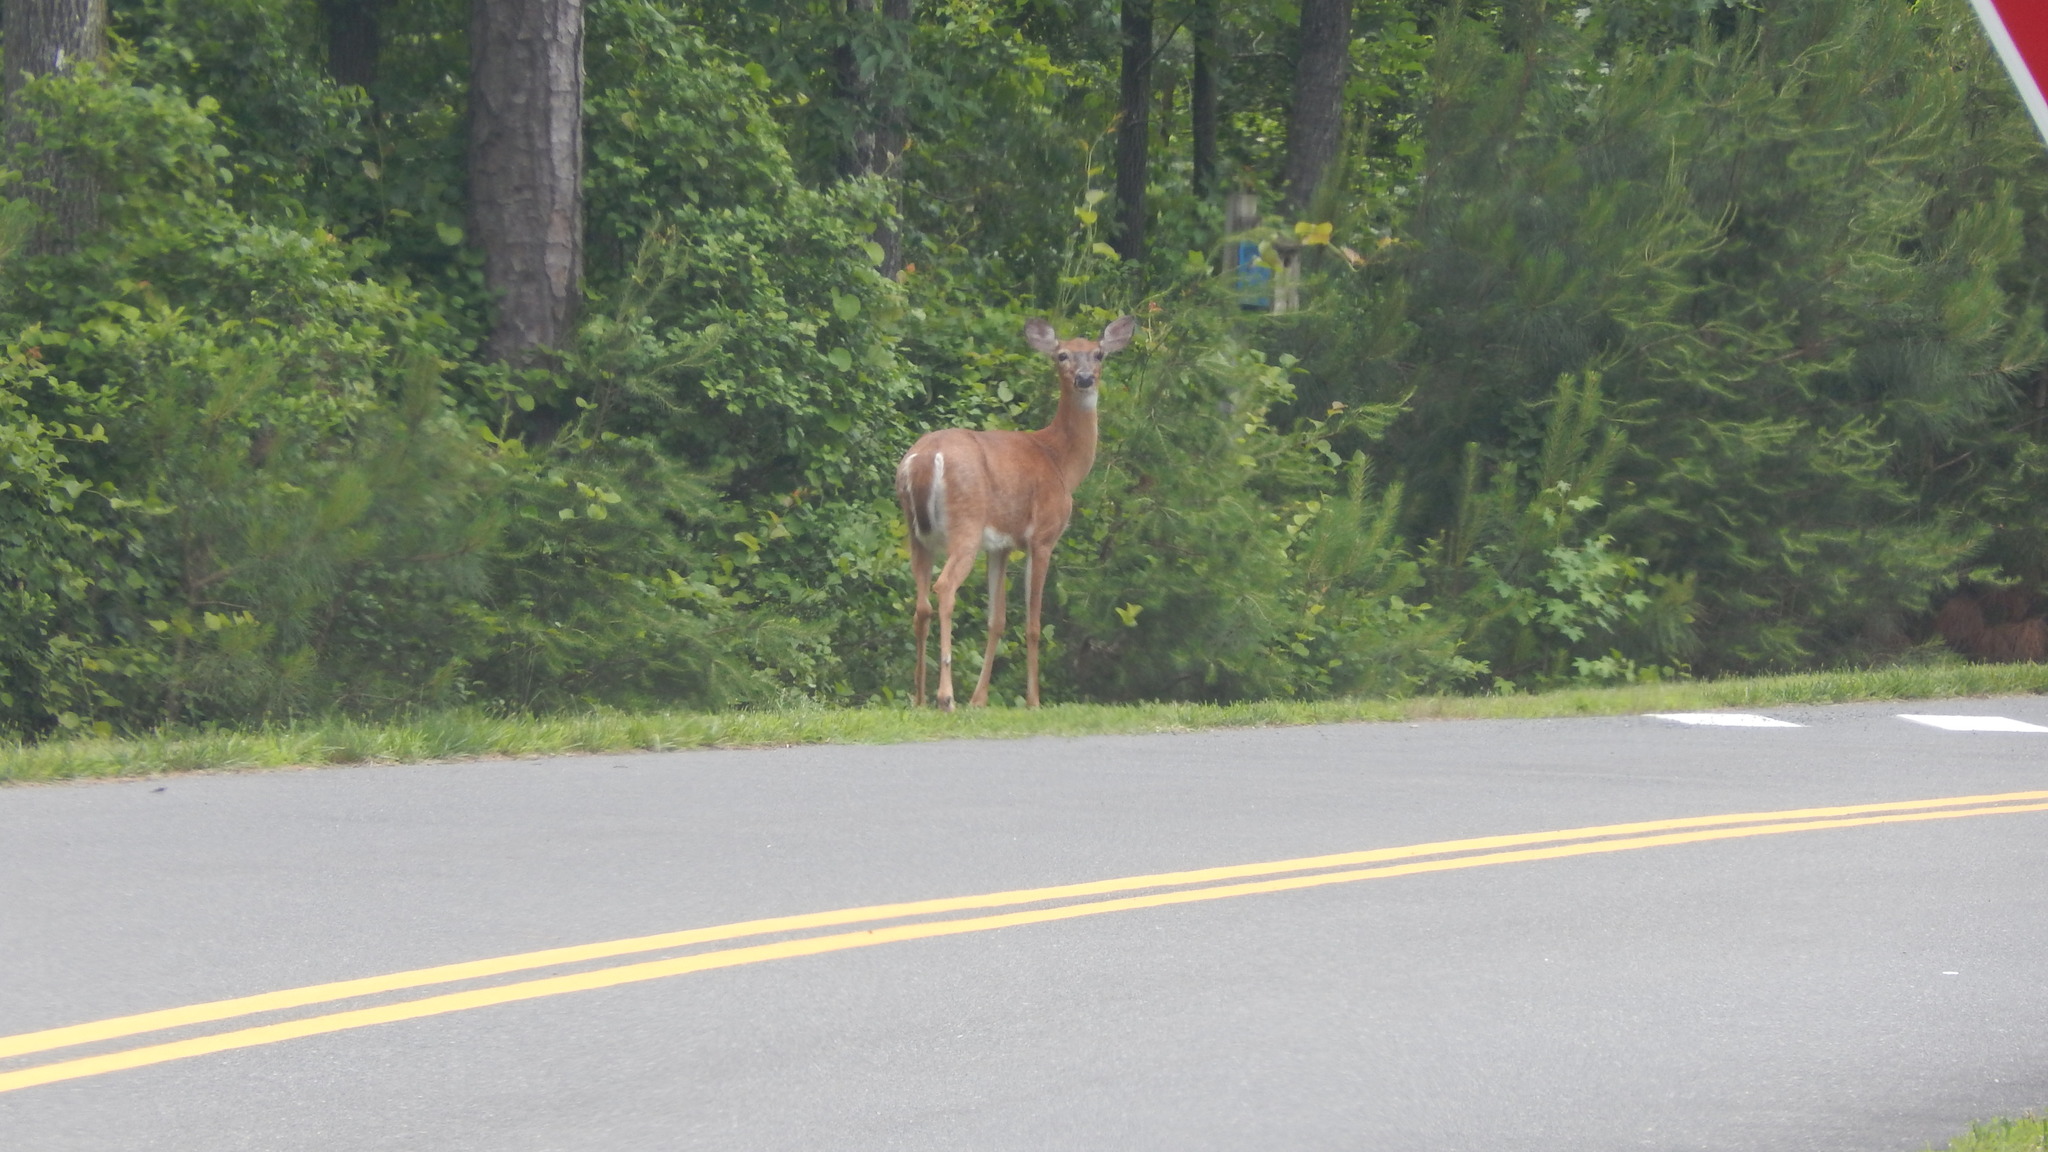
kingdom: Animalia
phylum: Chordata
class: Mammalia
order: Artiodactyla
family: Cervidae
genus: Odocoileus
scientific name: Odocoileus virginianus
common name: White-tailed deer
